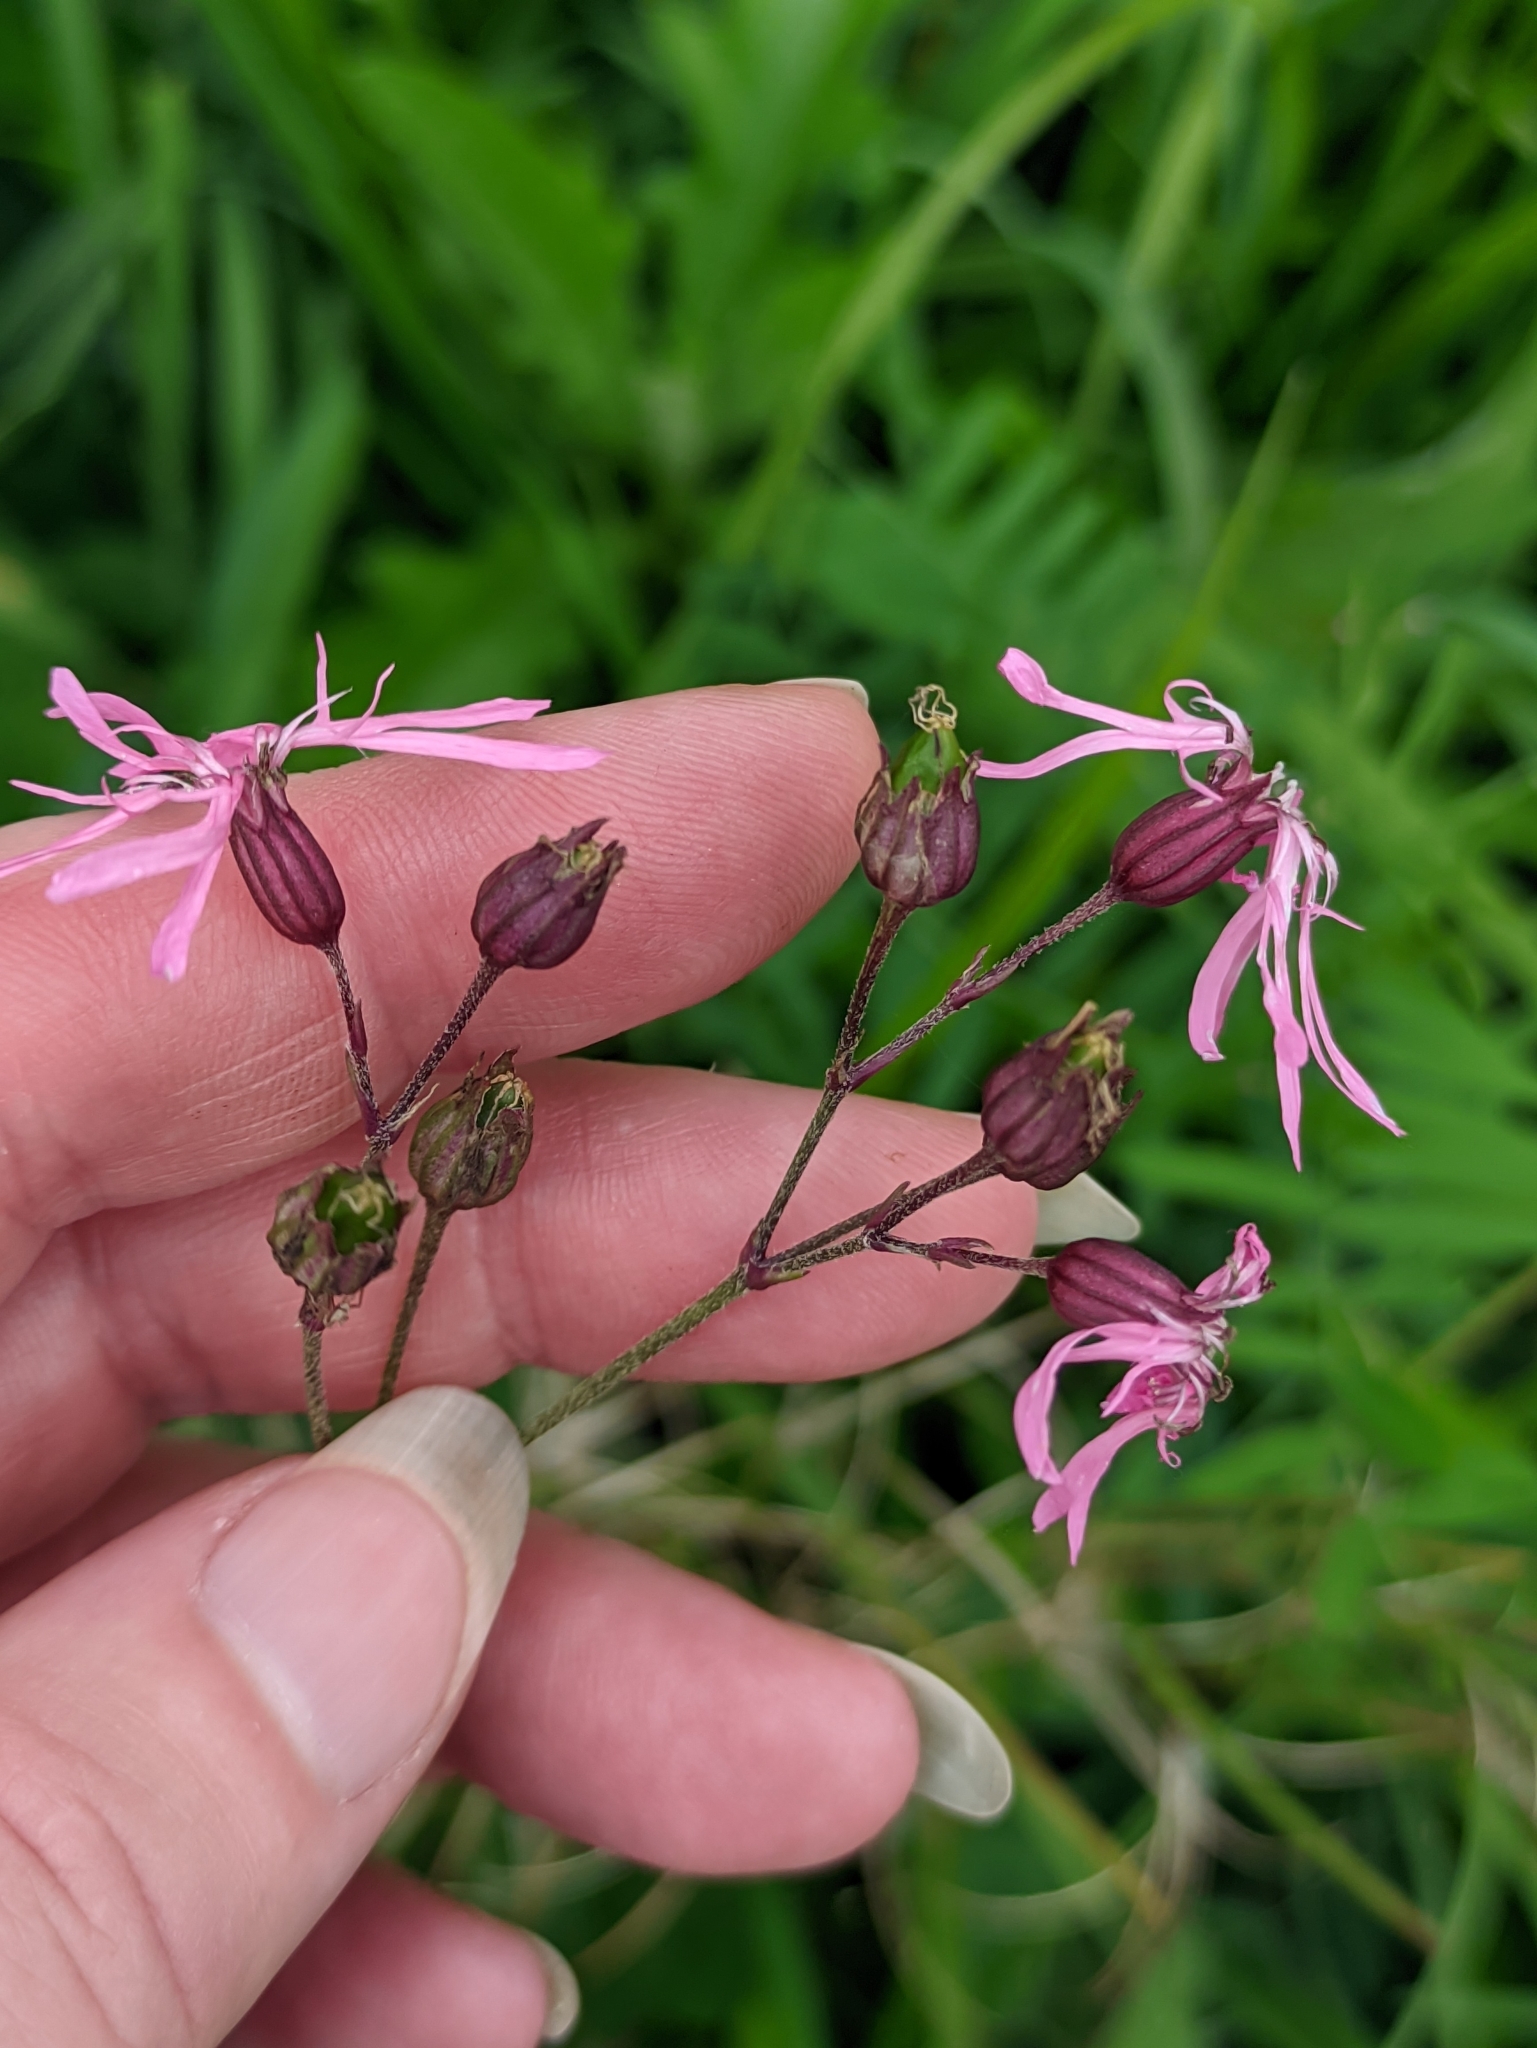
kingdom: Plantae
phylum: Tracheophyta
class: Magnoliopsida
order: Caryophyllales
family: Caryophyllaceae
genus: Silene
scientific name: Silene flos-cuculi
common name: Ragged-robin
